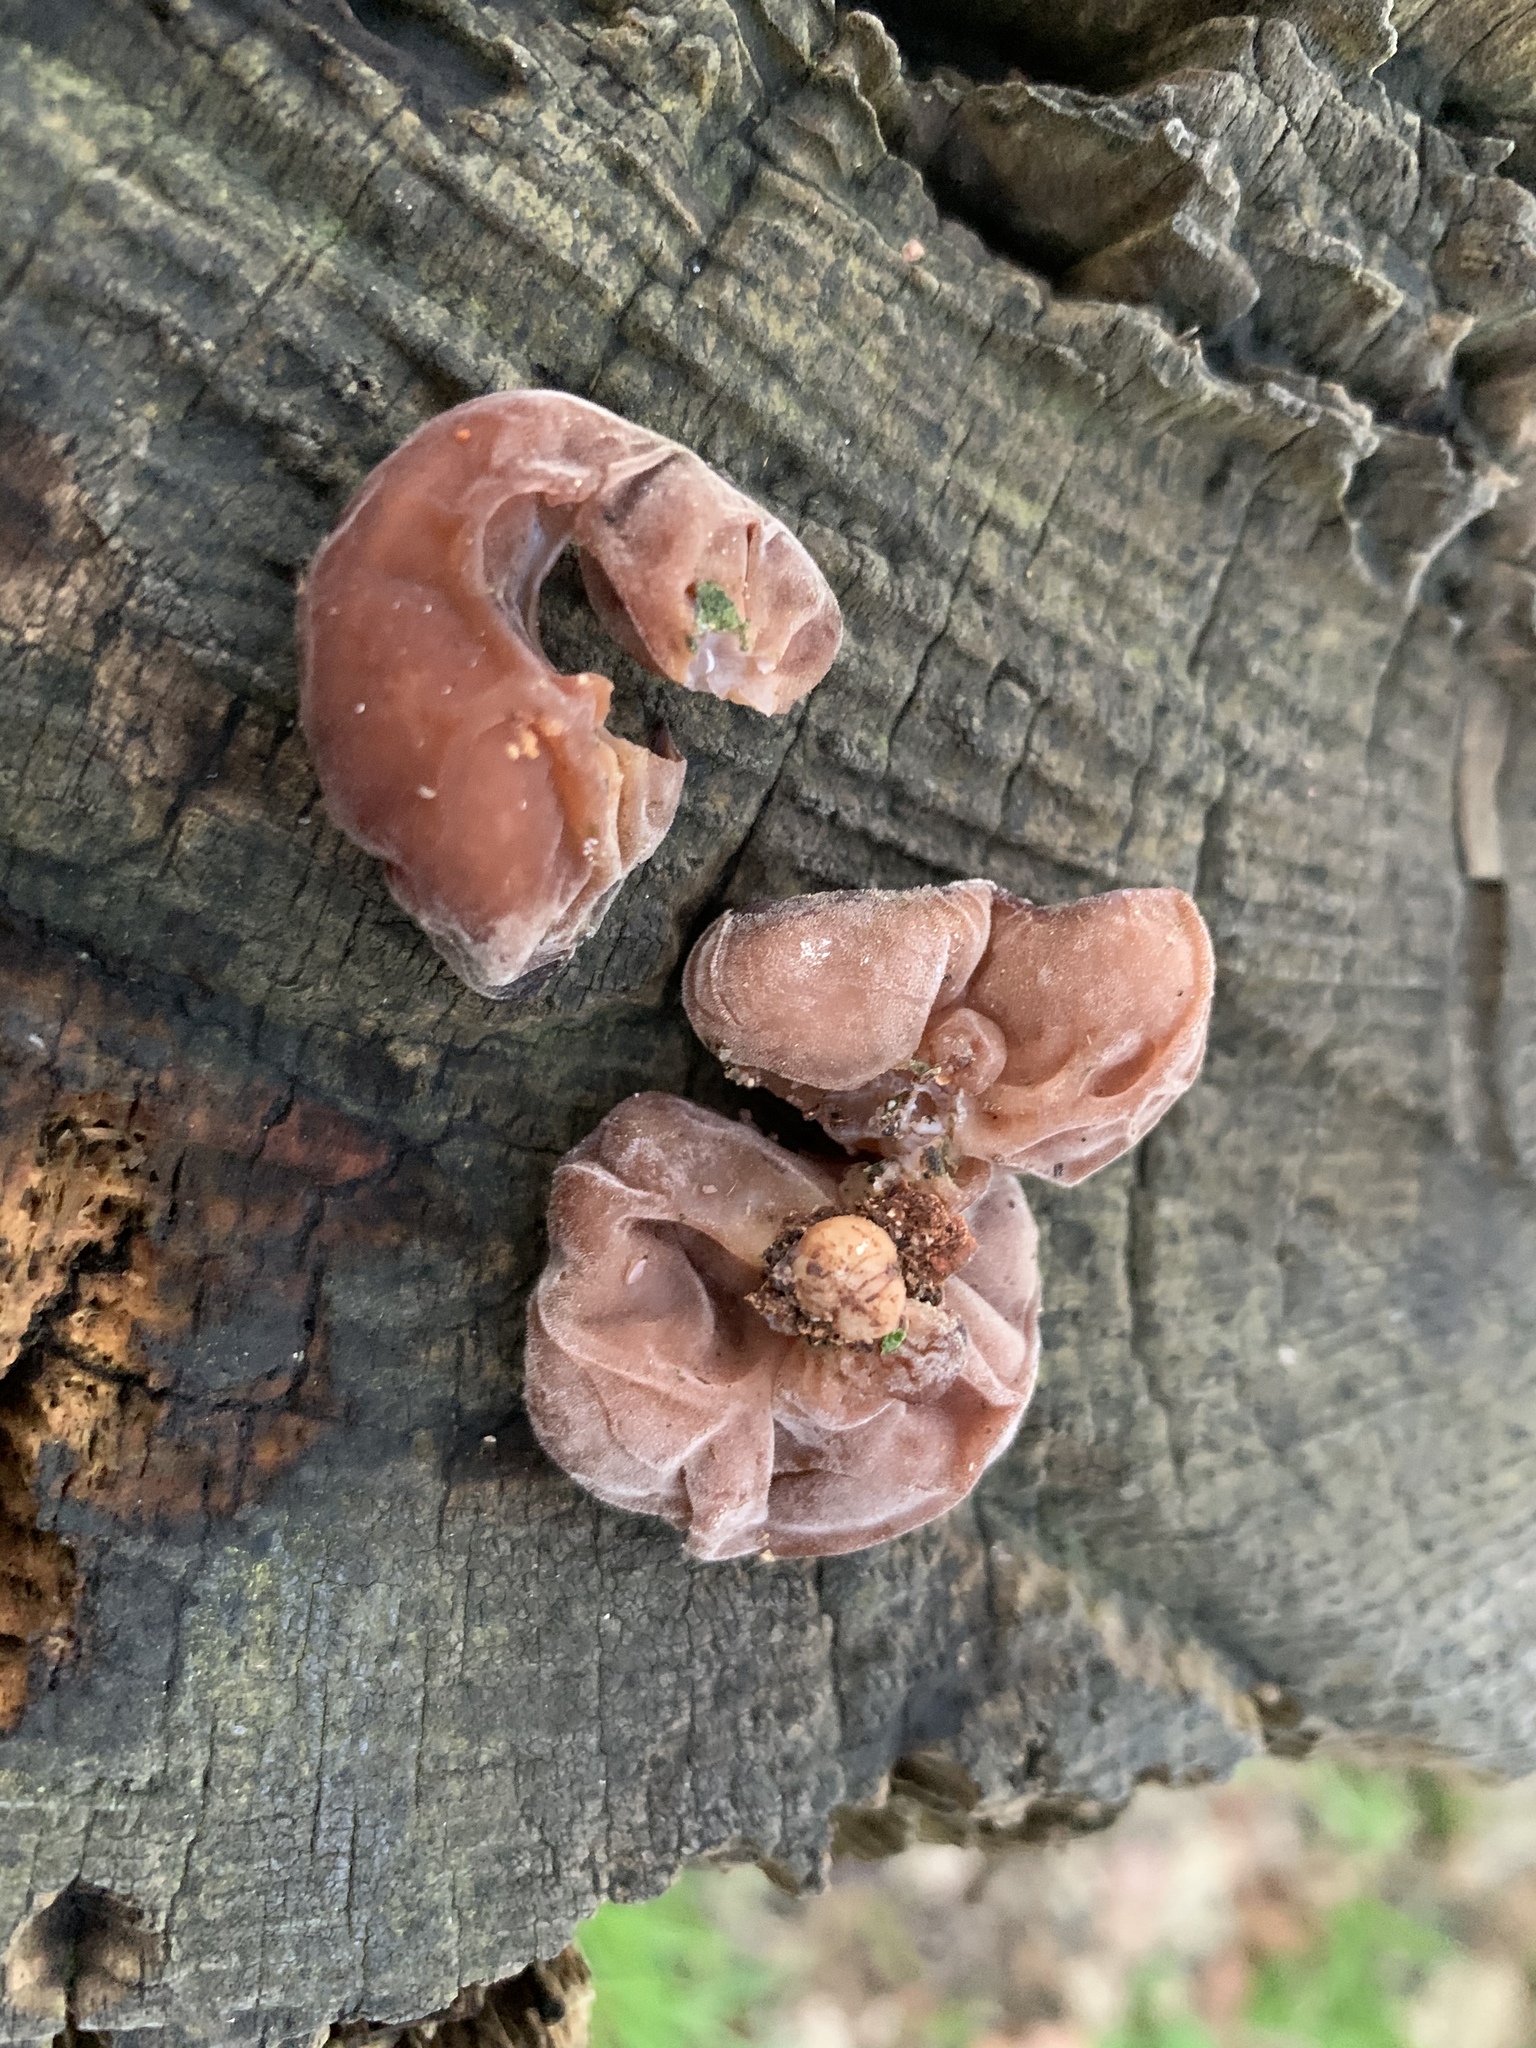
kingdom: Fungi
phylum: Basidiomycota
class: Agaricomycetes
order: Auriculariales
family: Auriculariaceae
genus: Auricularia
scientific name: Auricularia auricula-judae
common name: Jelly ear
